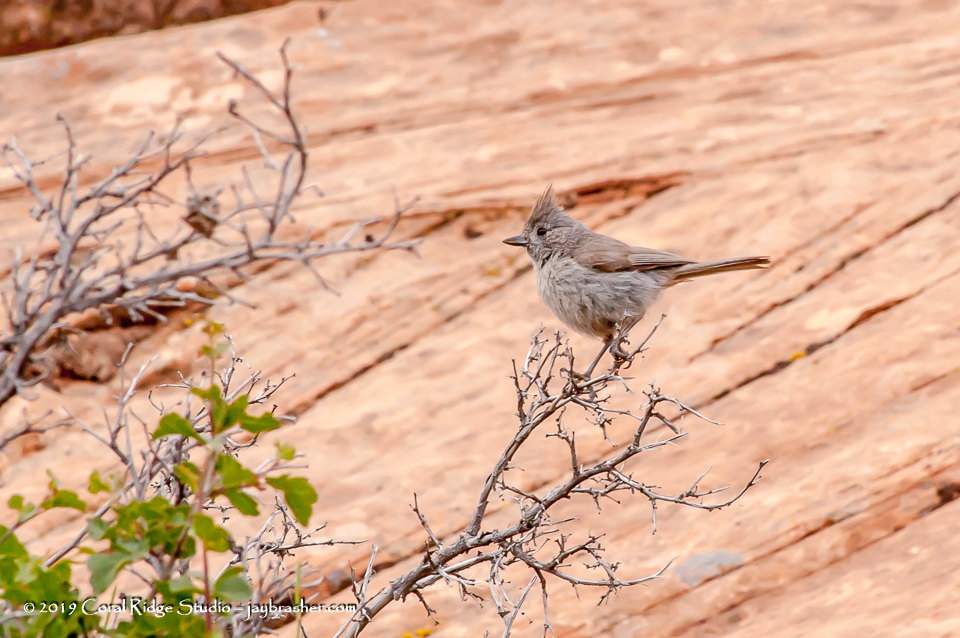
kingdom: Animalia
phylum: Chordata
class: Aves
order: Passeriformes
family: Paridae
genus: Baeolophus
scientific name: Baeolophus ridgwayi
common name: Juniper titmouse
